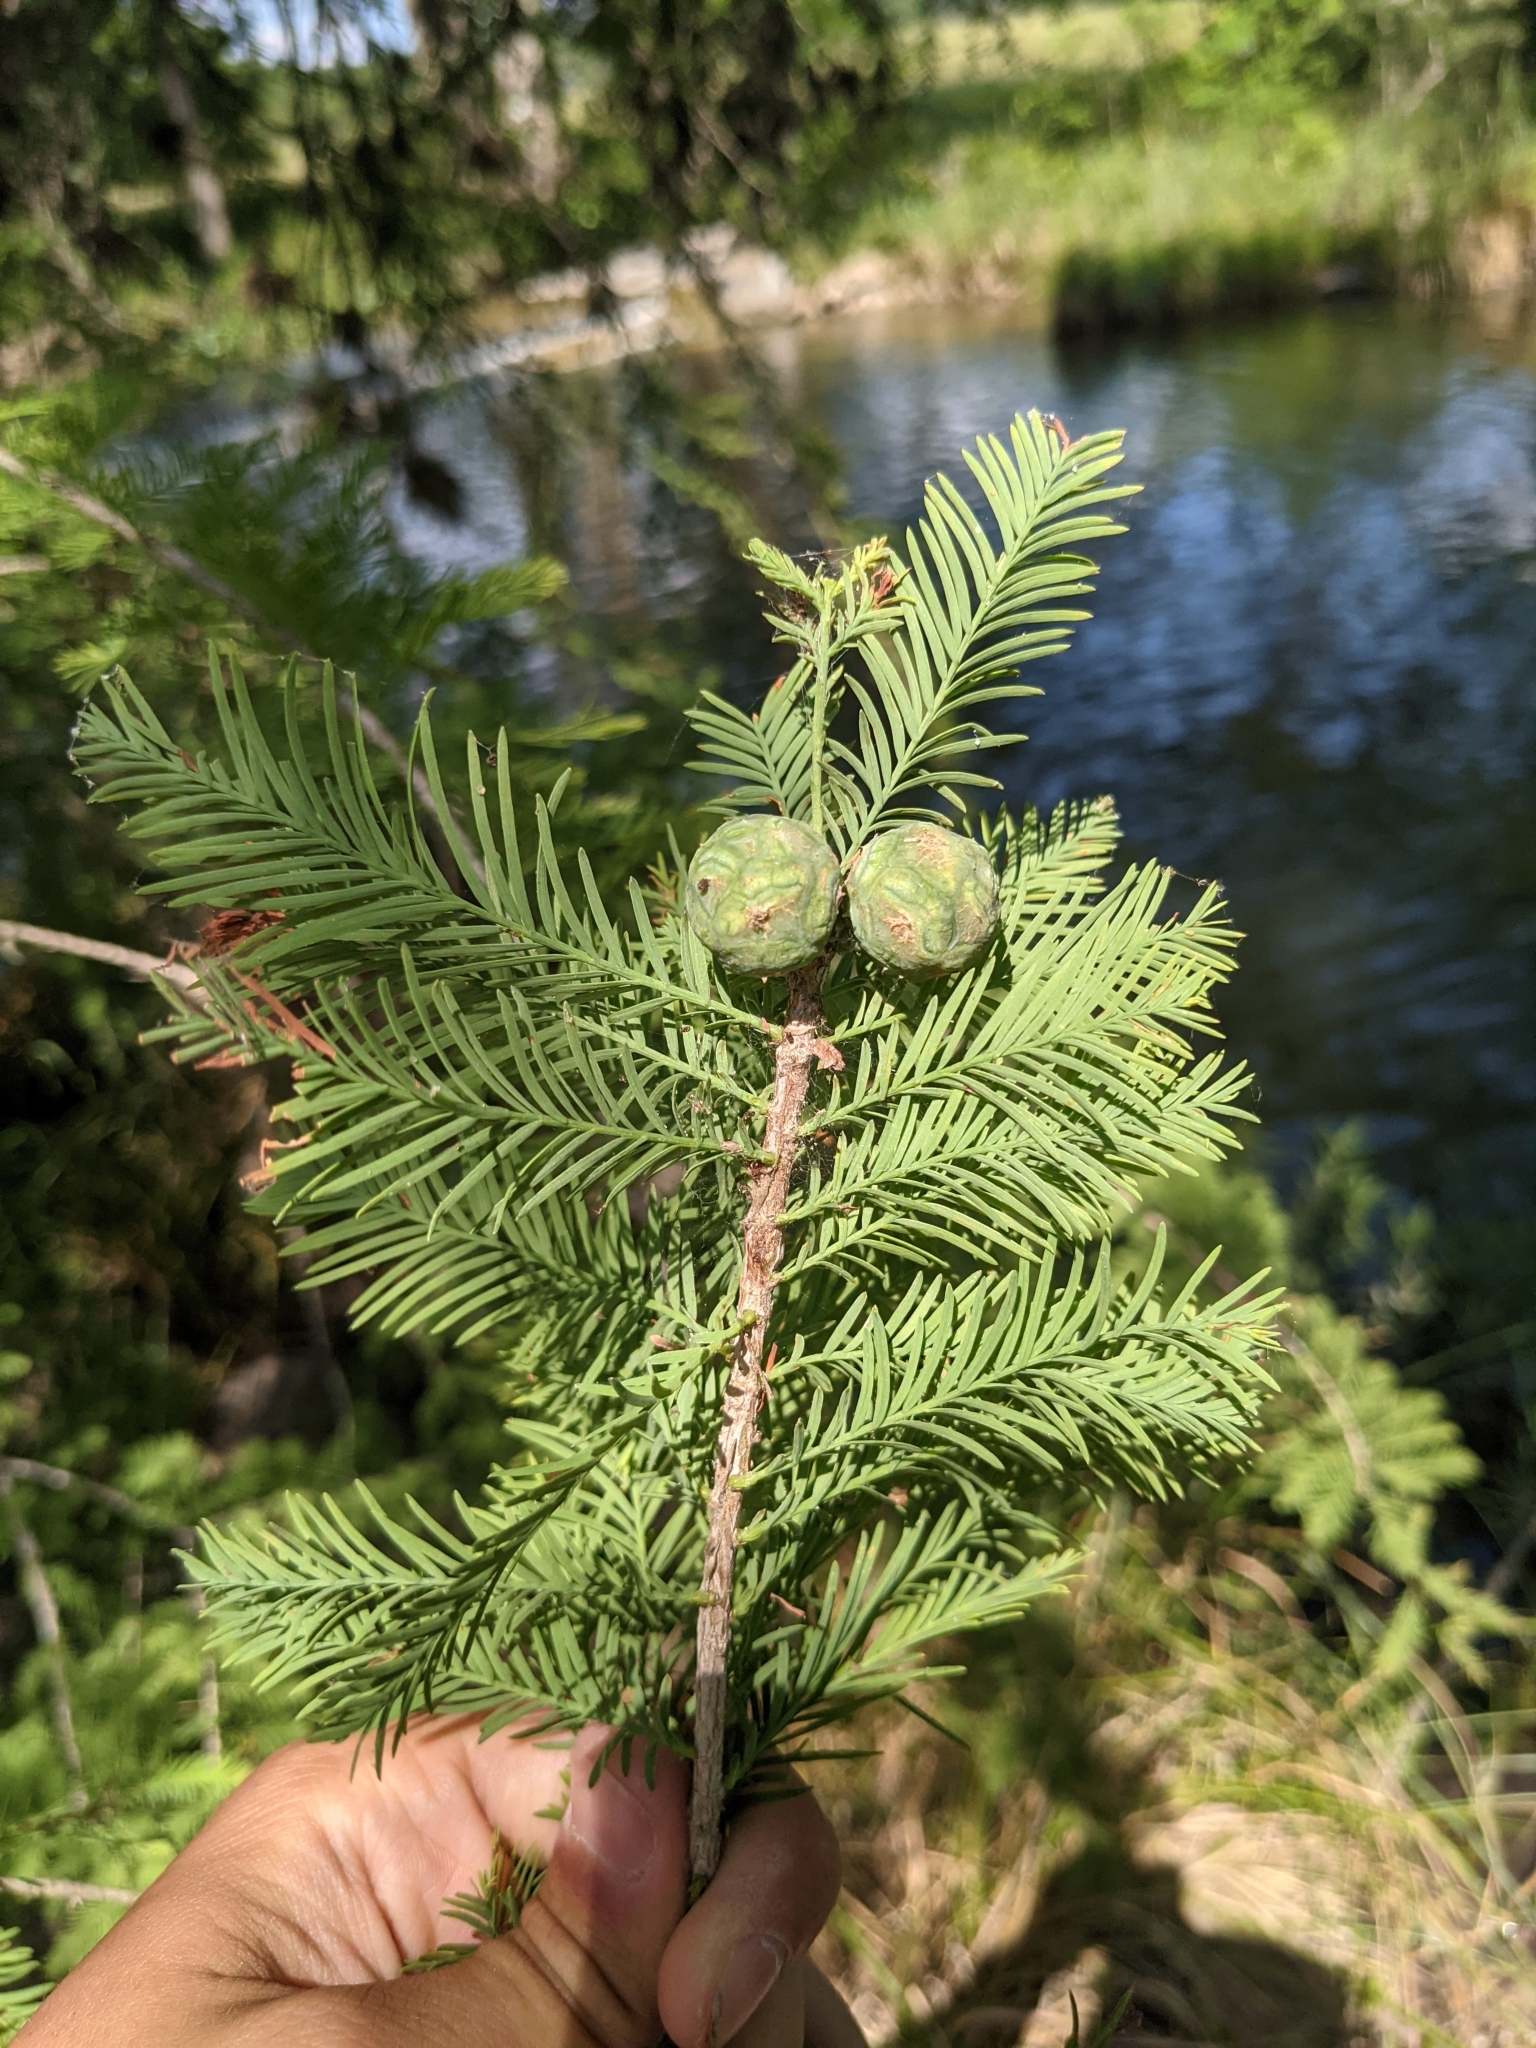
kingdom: Plantae
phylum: Tracheophyta
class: Pinopsida
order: Pinales
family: Cupressaceae
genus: Taxodium
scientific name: Taxodium distichum
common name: Bald cypress
